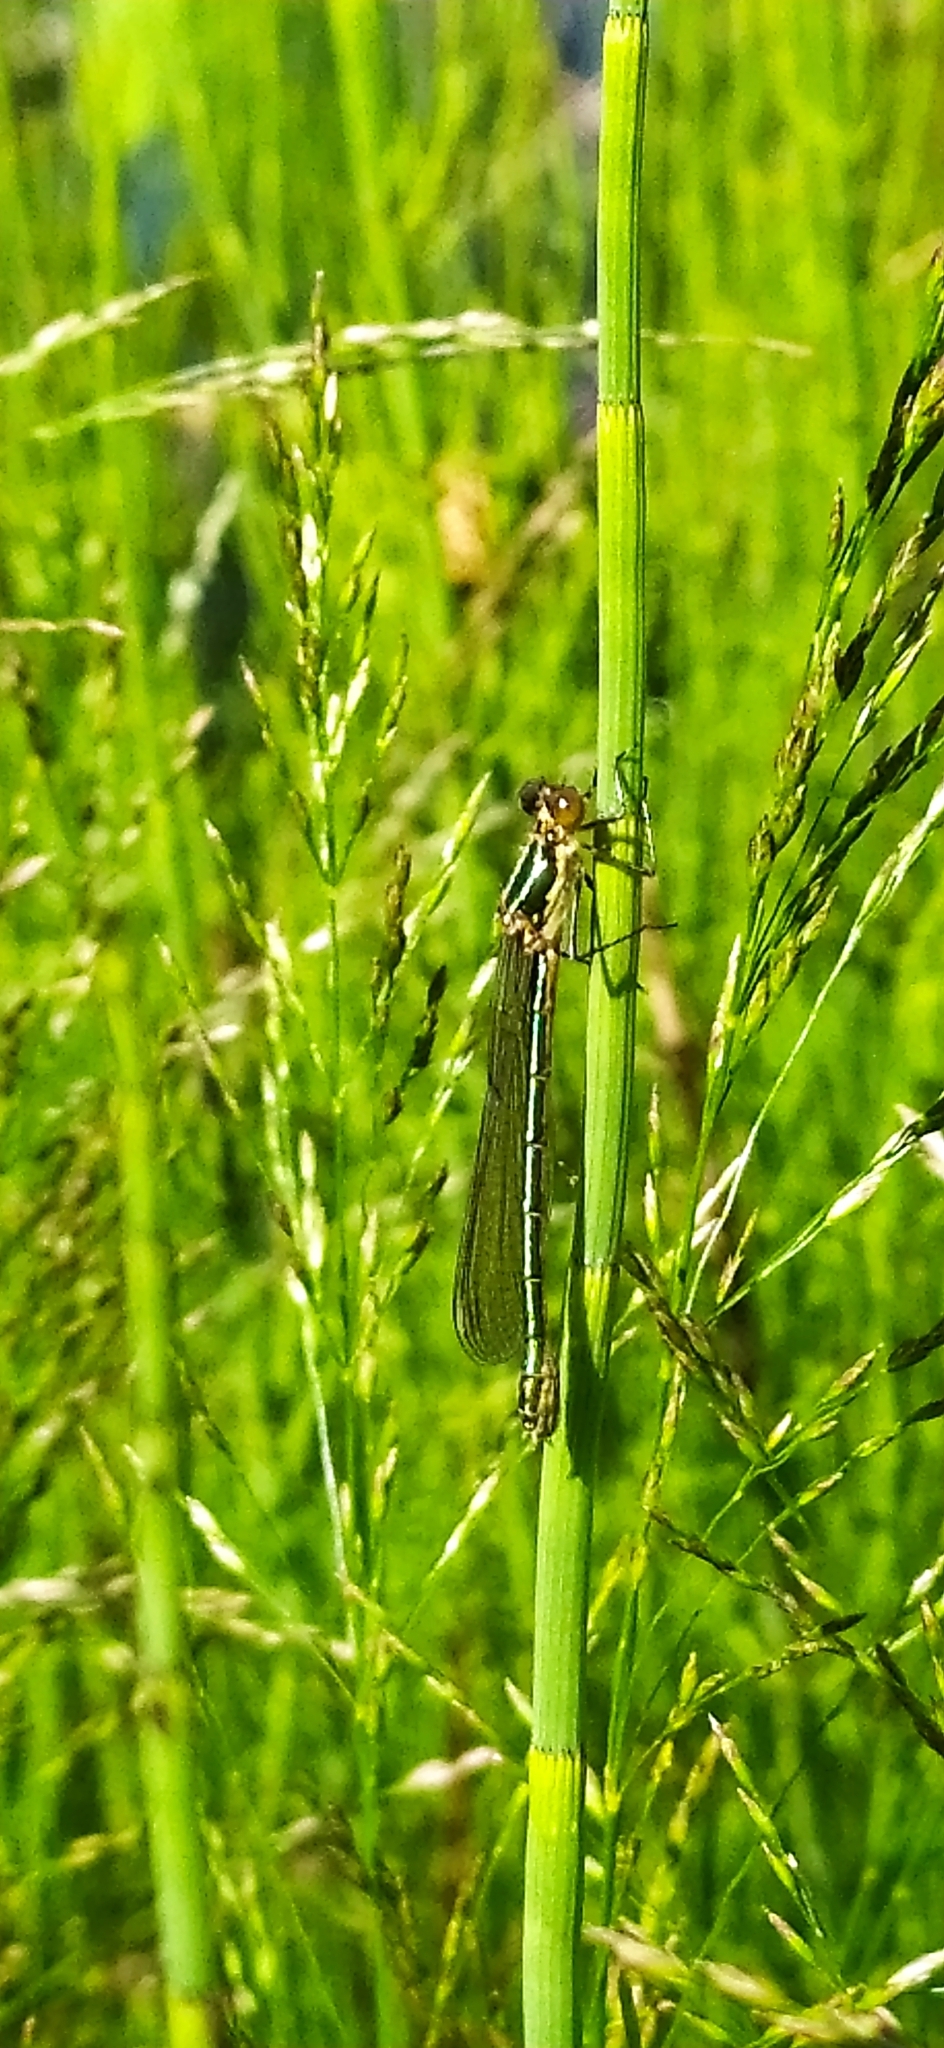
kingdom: Animalia
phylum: Arthropoda
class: Insecta
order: Odonata
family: Lestidae
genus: Lestes
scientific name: Lestes dryas
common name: Scarce emerald damselfly
